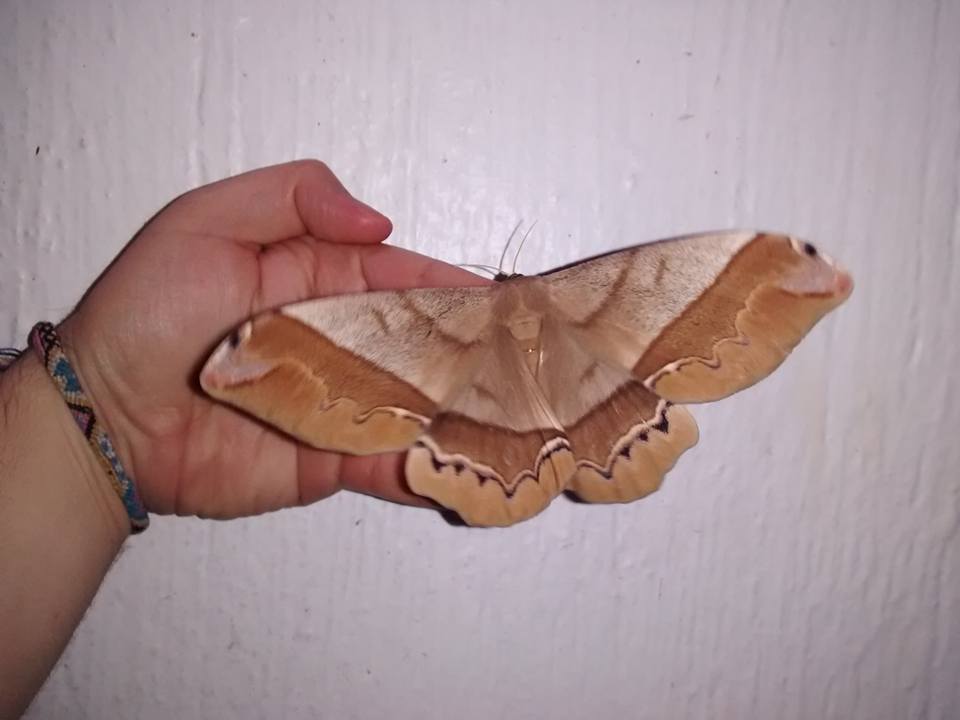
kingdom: Animalia
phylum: Arthropoda
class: Insecta
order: Lepidoptera
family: Saturniidae
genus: Arsenura
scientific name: Arsenura armida
